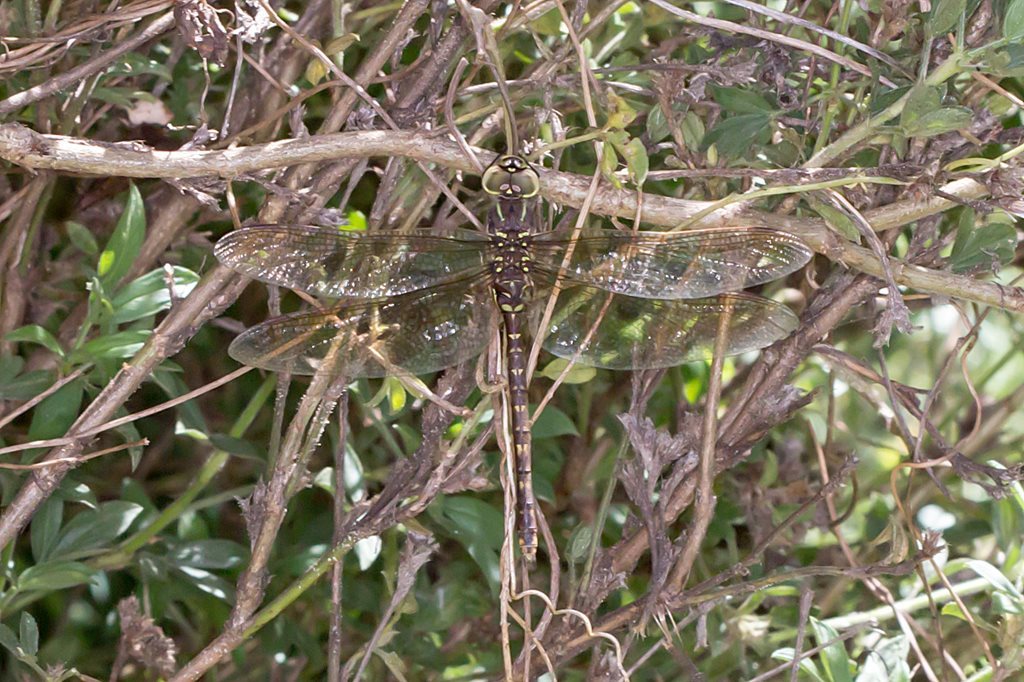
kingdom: Animalia
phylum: Arthropoda
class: Insecta
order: Odonata
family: Aeshnidae
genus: Aeshna
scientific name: Aeshna brevistyla
